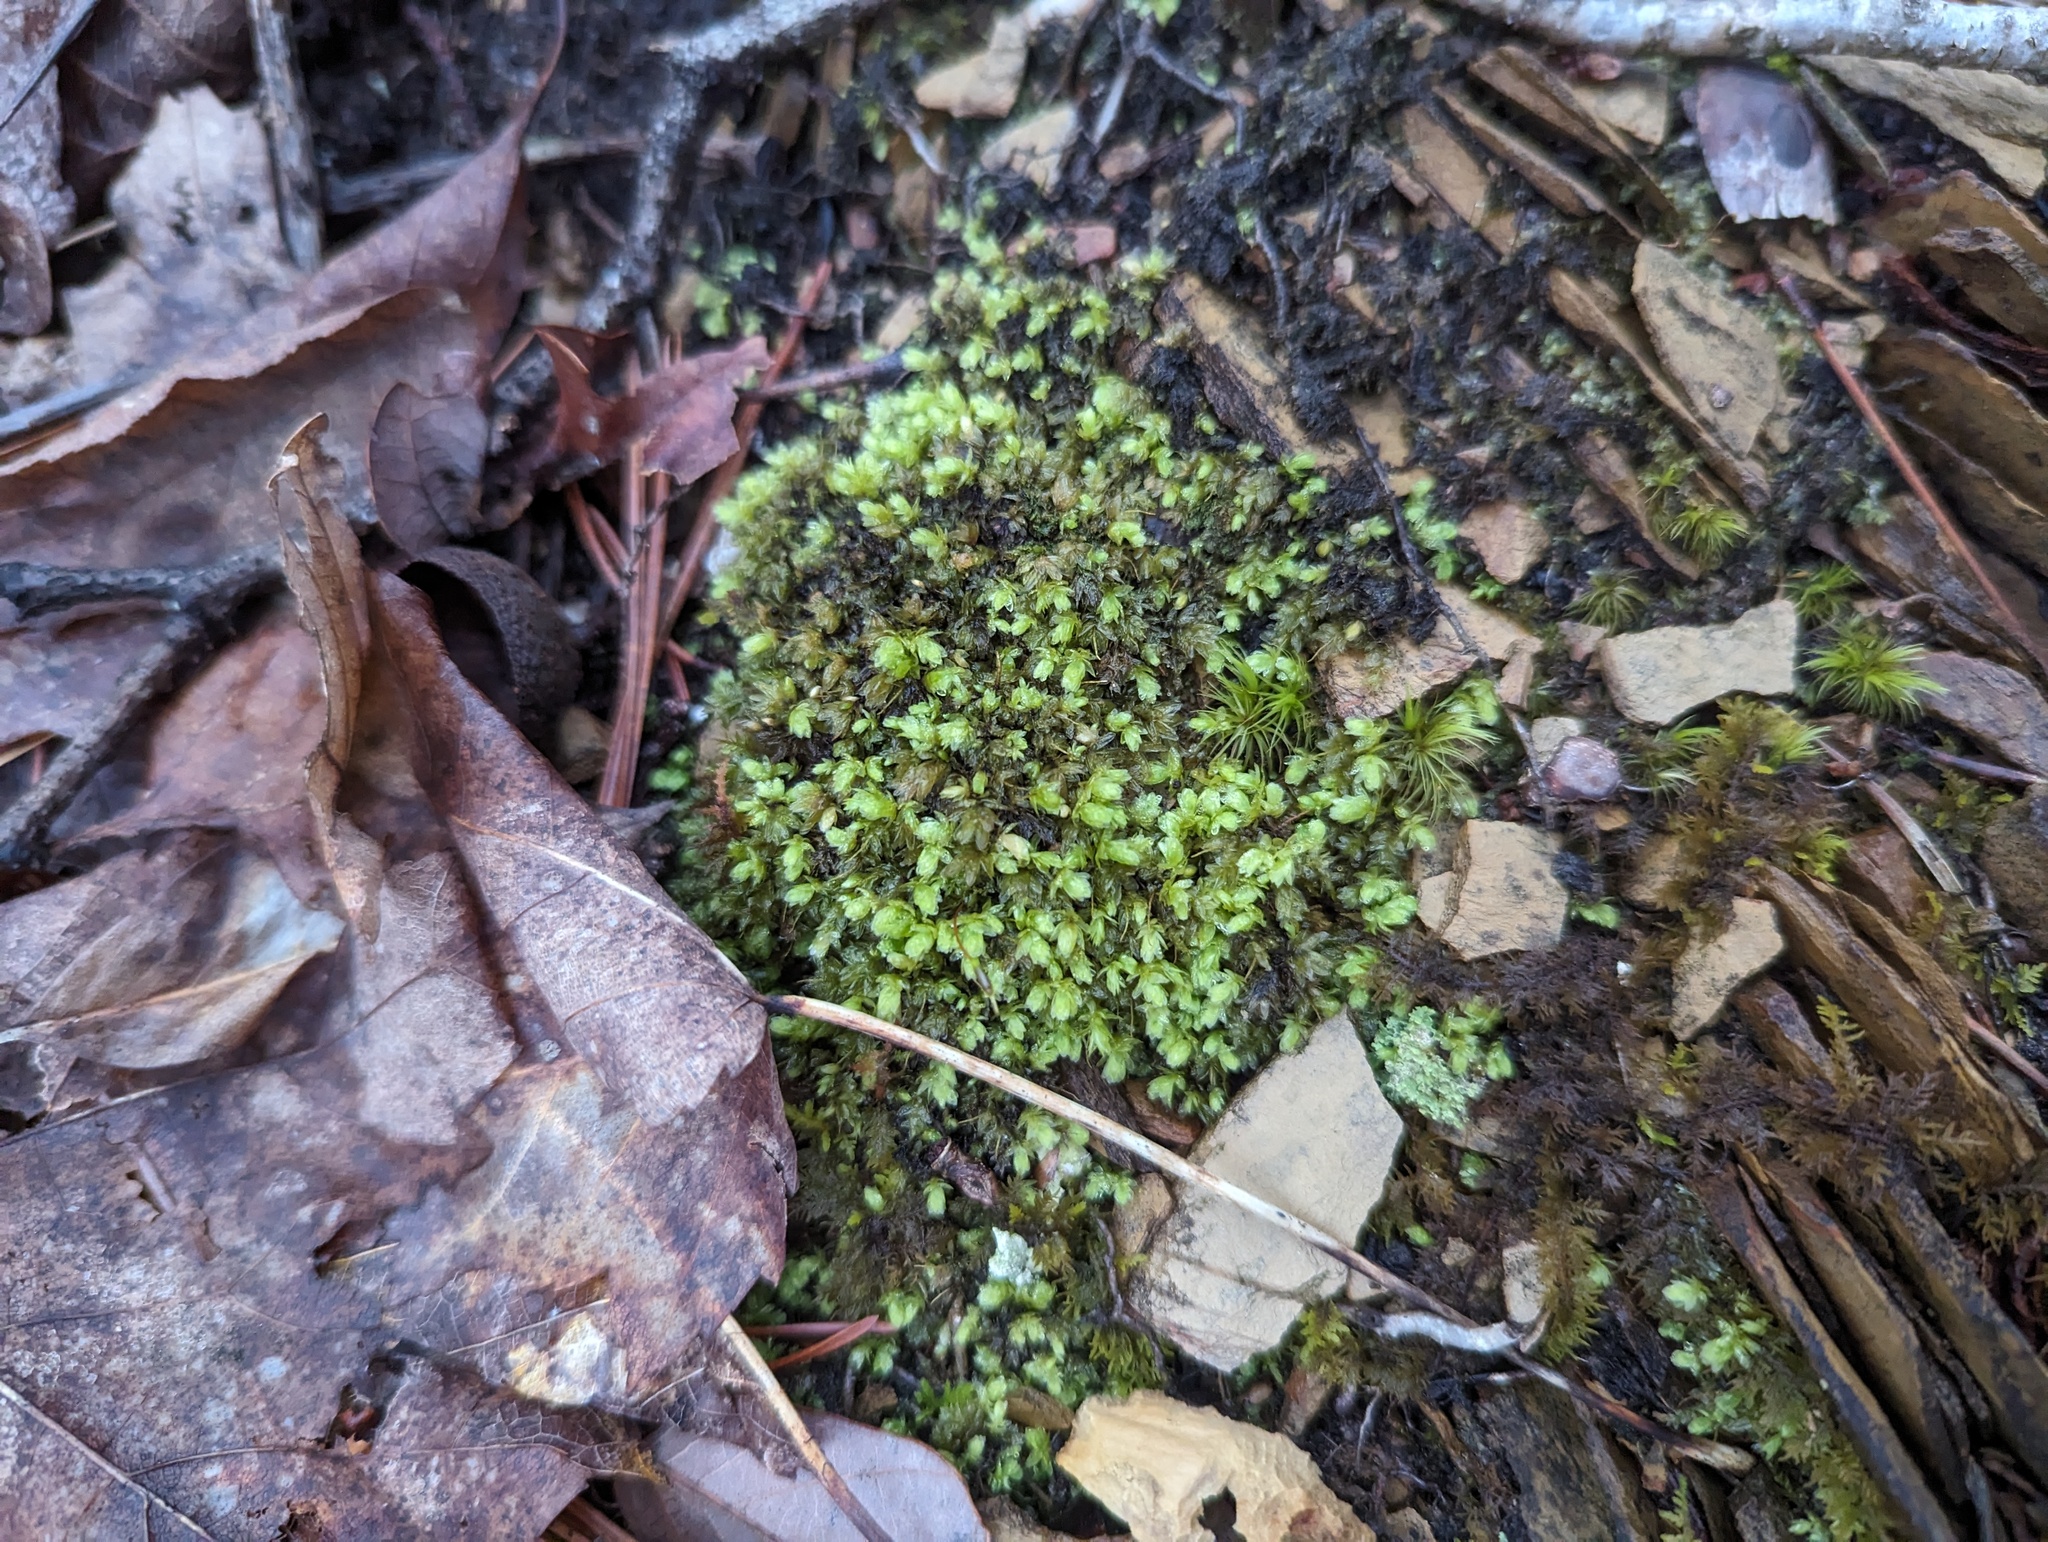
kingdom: Plantae
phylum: Bryophyta
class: Bryopsida
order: Aulacomniales
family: Aulacomniaceae
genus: Aulacomnium
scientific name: Aulacomnium heterostichum
